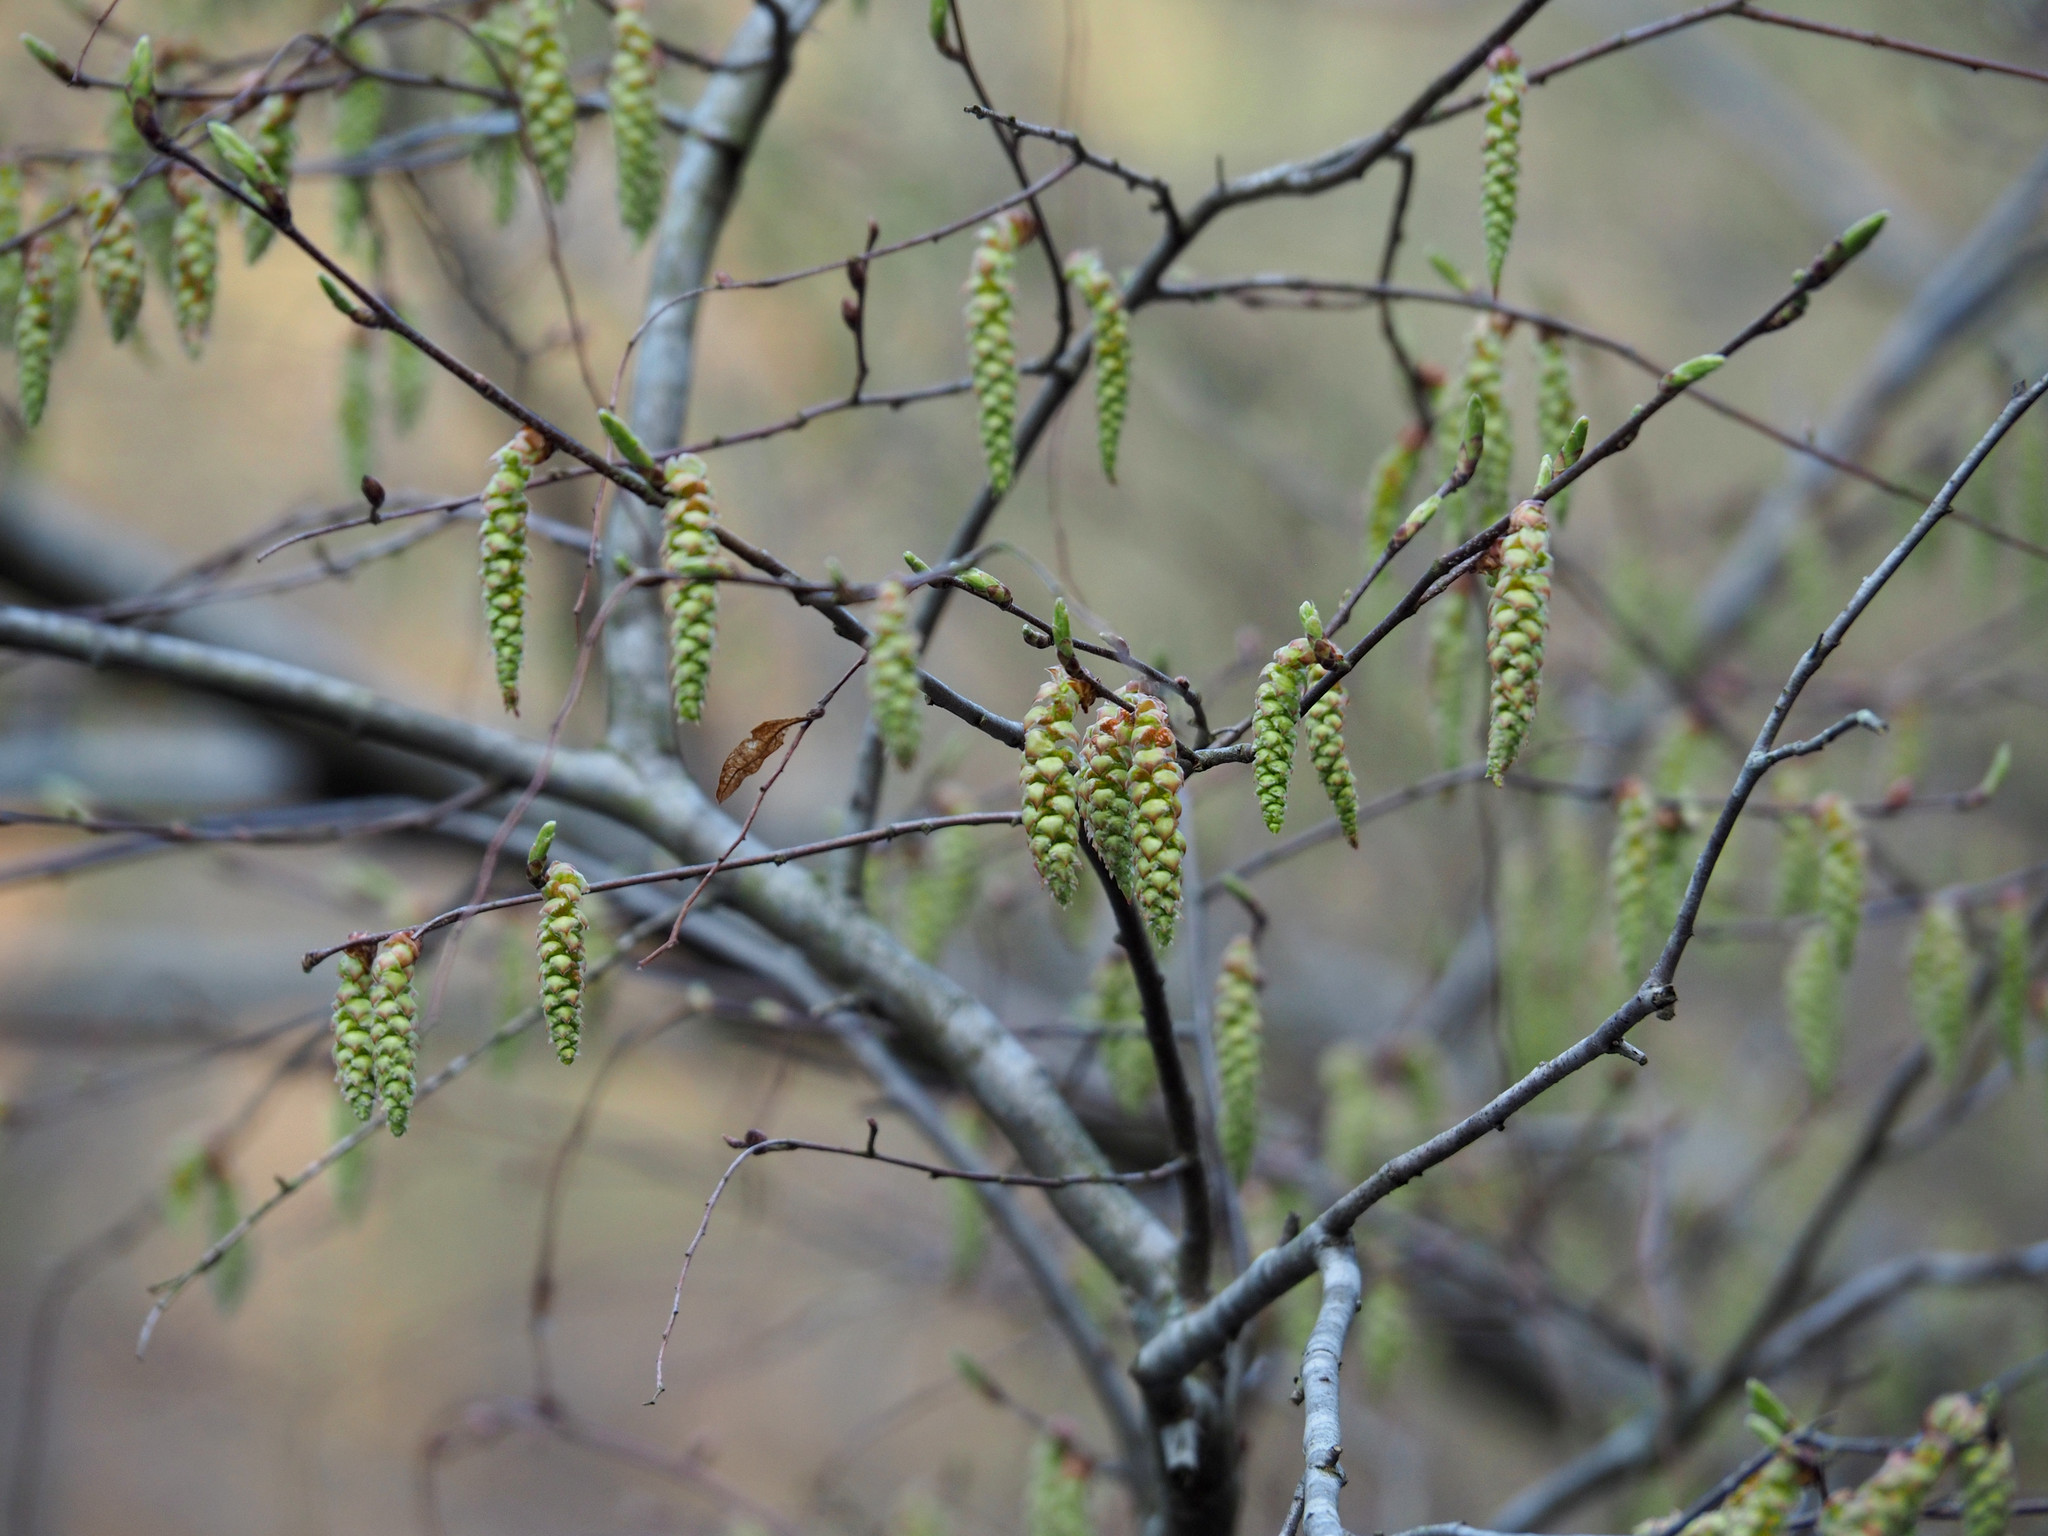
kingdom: Plantae
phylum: Tracheophyta
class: Magnoliopsida
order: Fagales
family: Betulaceae
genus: Carpinus
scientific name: Carpinus caroliniana
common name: American hornbeam
